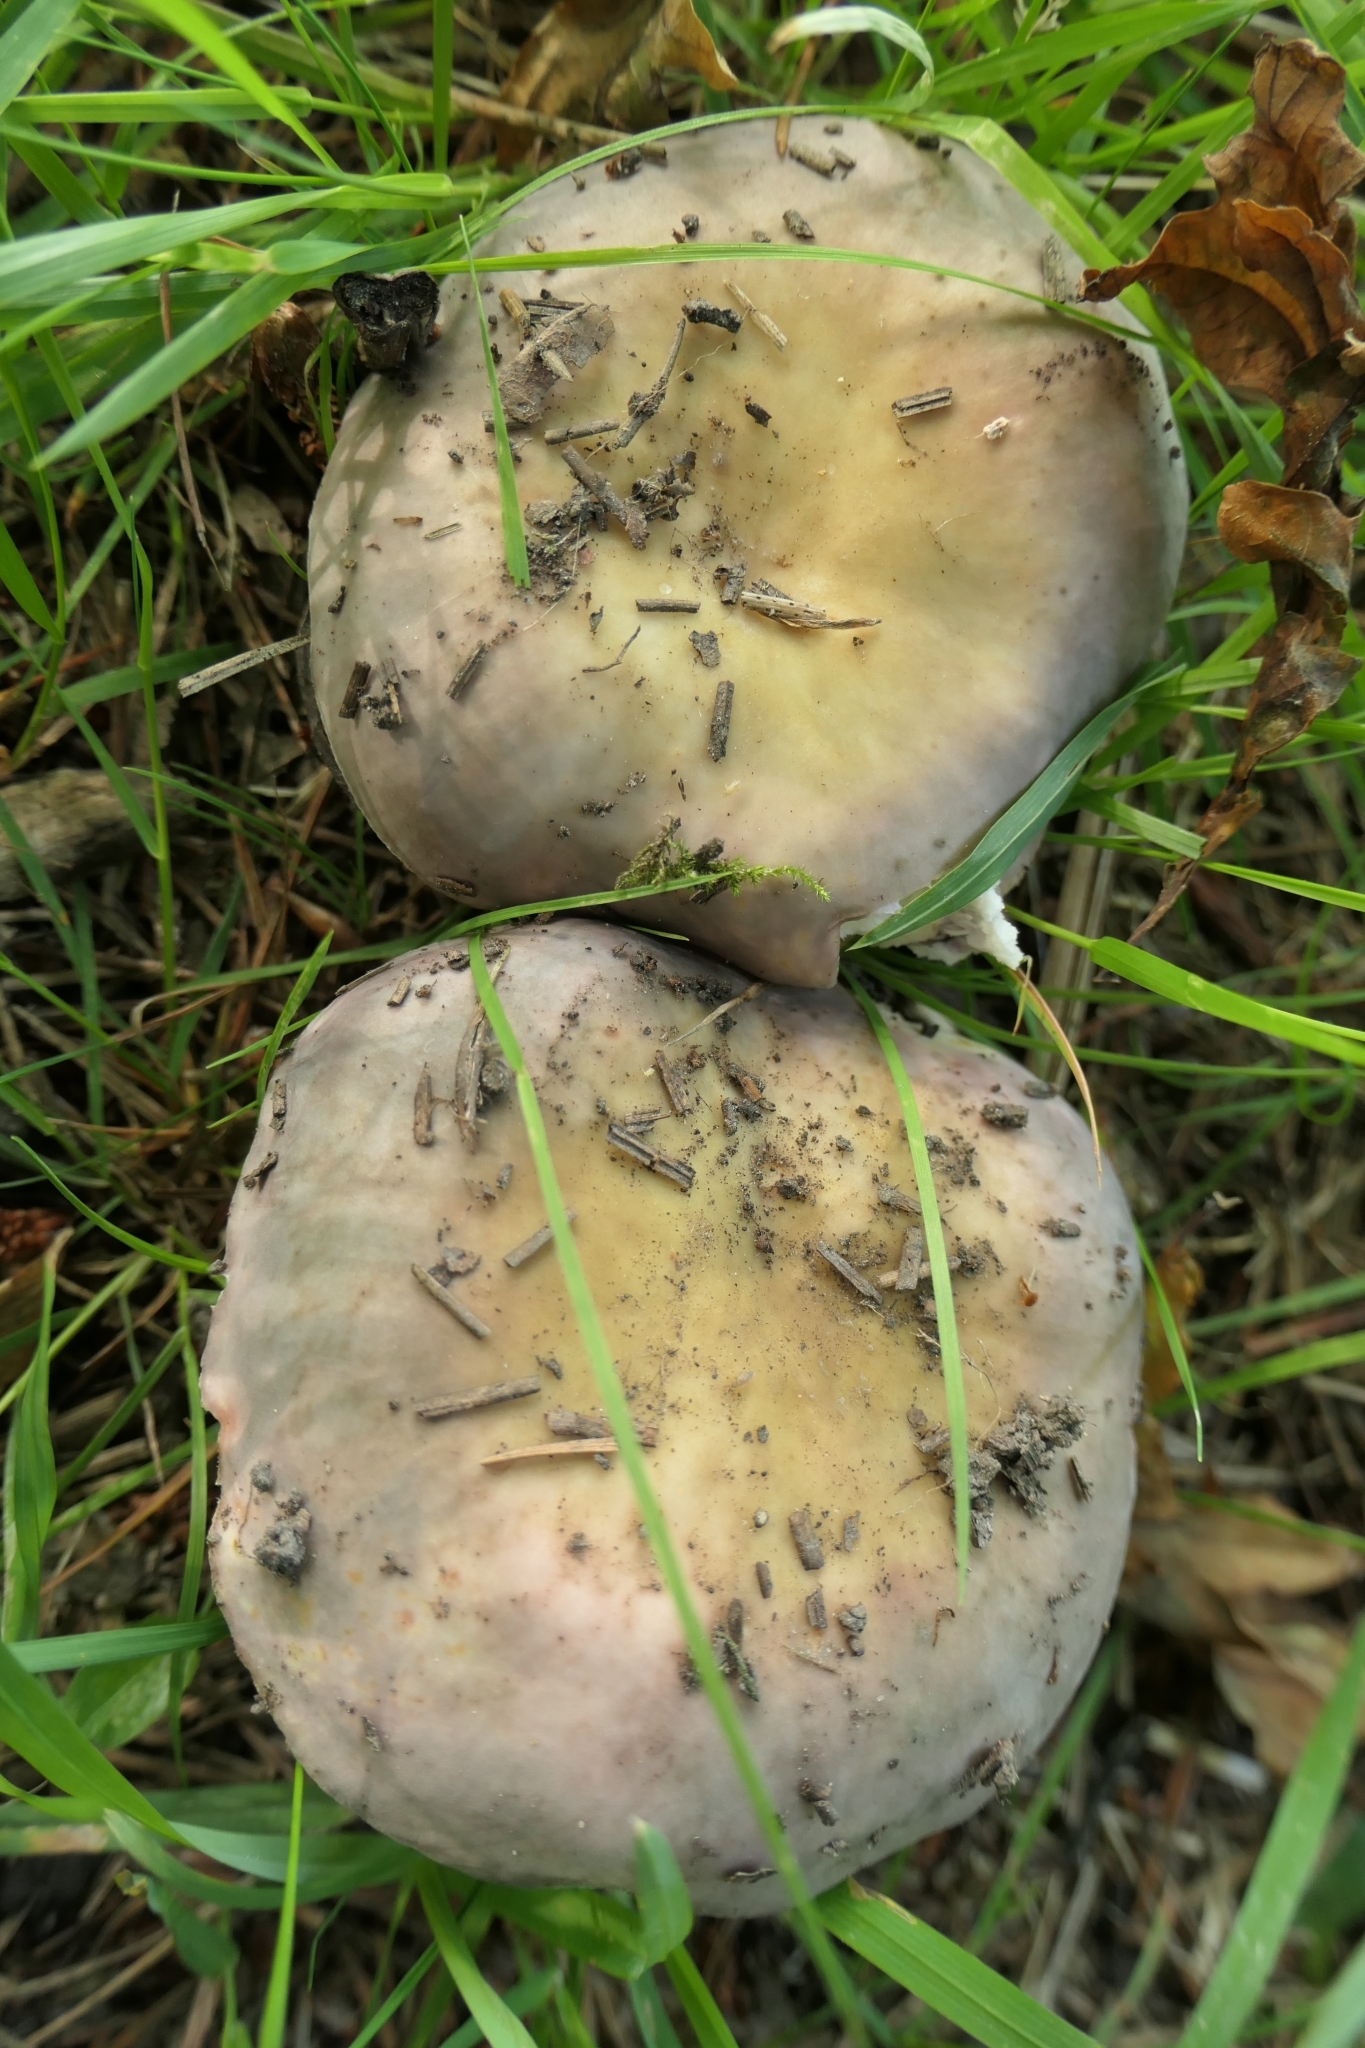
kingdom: Fungi
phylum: Basidiomycota
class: Agaricomycetes
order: Russulales
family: Russulaceae
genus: Russula
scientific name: Russula ionochlora
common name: Marbled brittlegill
